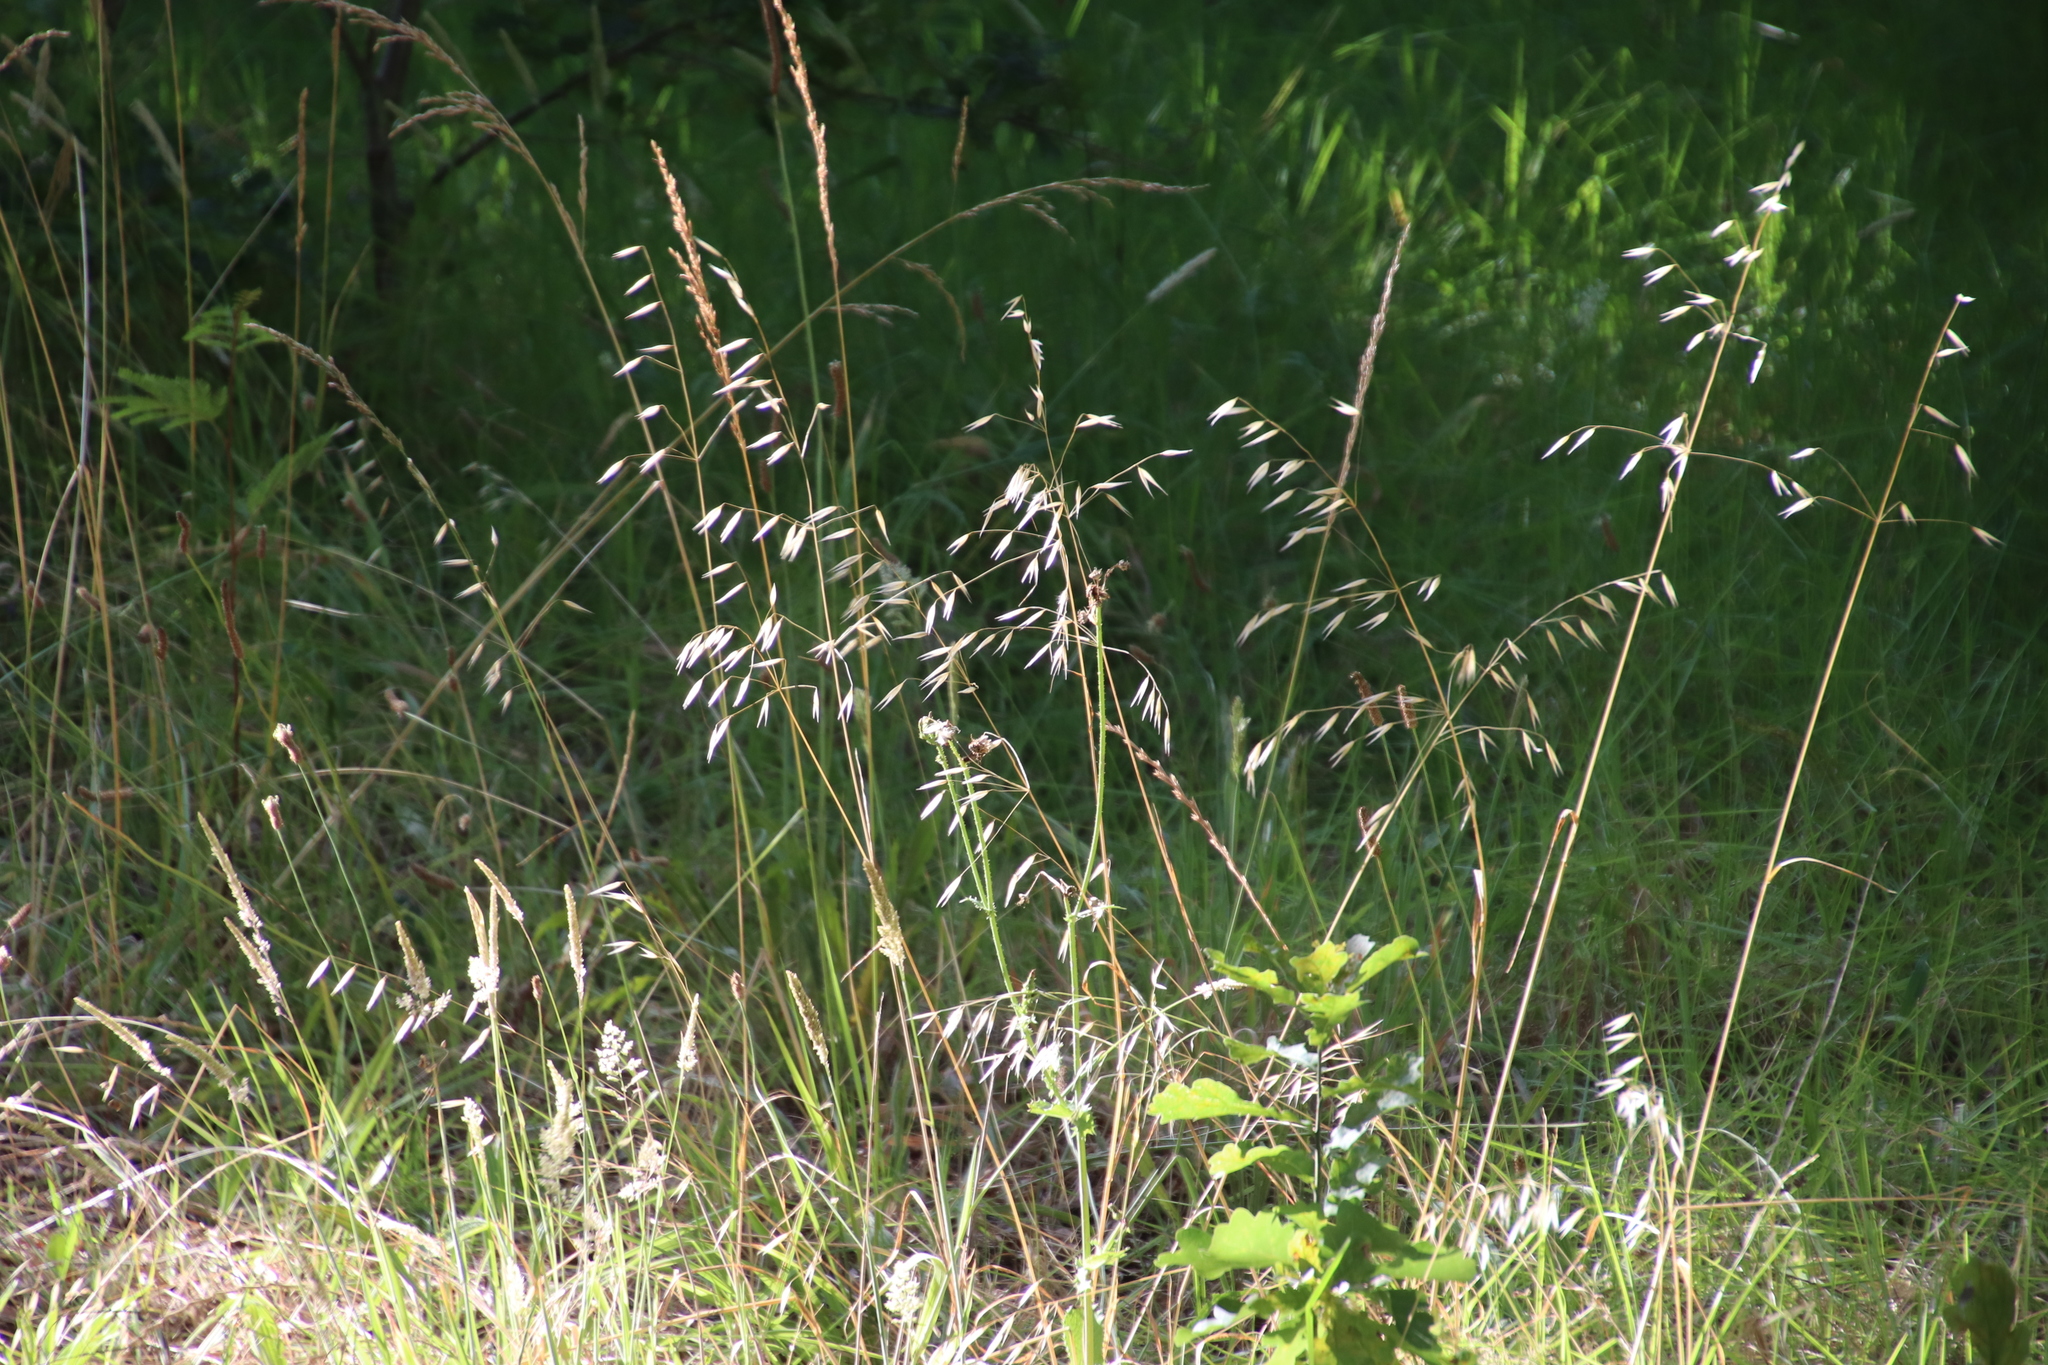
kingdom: Plantae
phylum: Tracheophyta
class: Liliopsida
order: Poales
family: Poaceae
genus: Avena
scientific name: Avena fatua
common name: Wild oat
